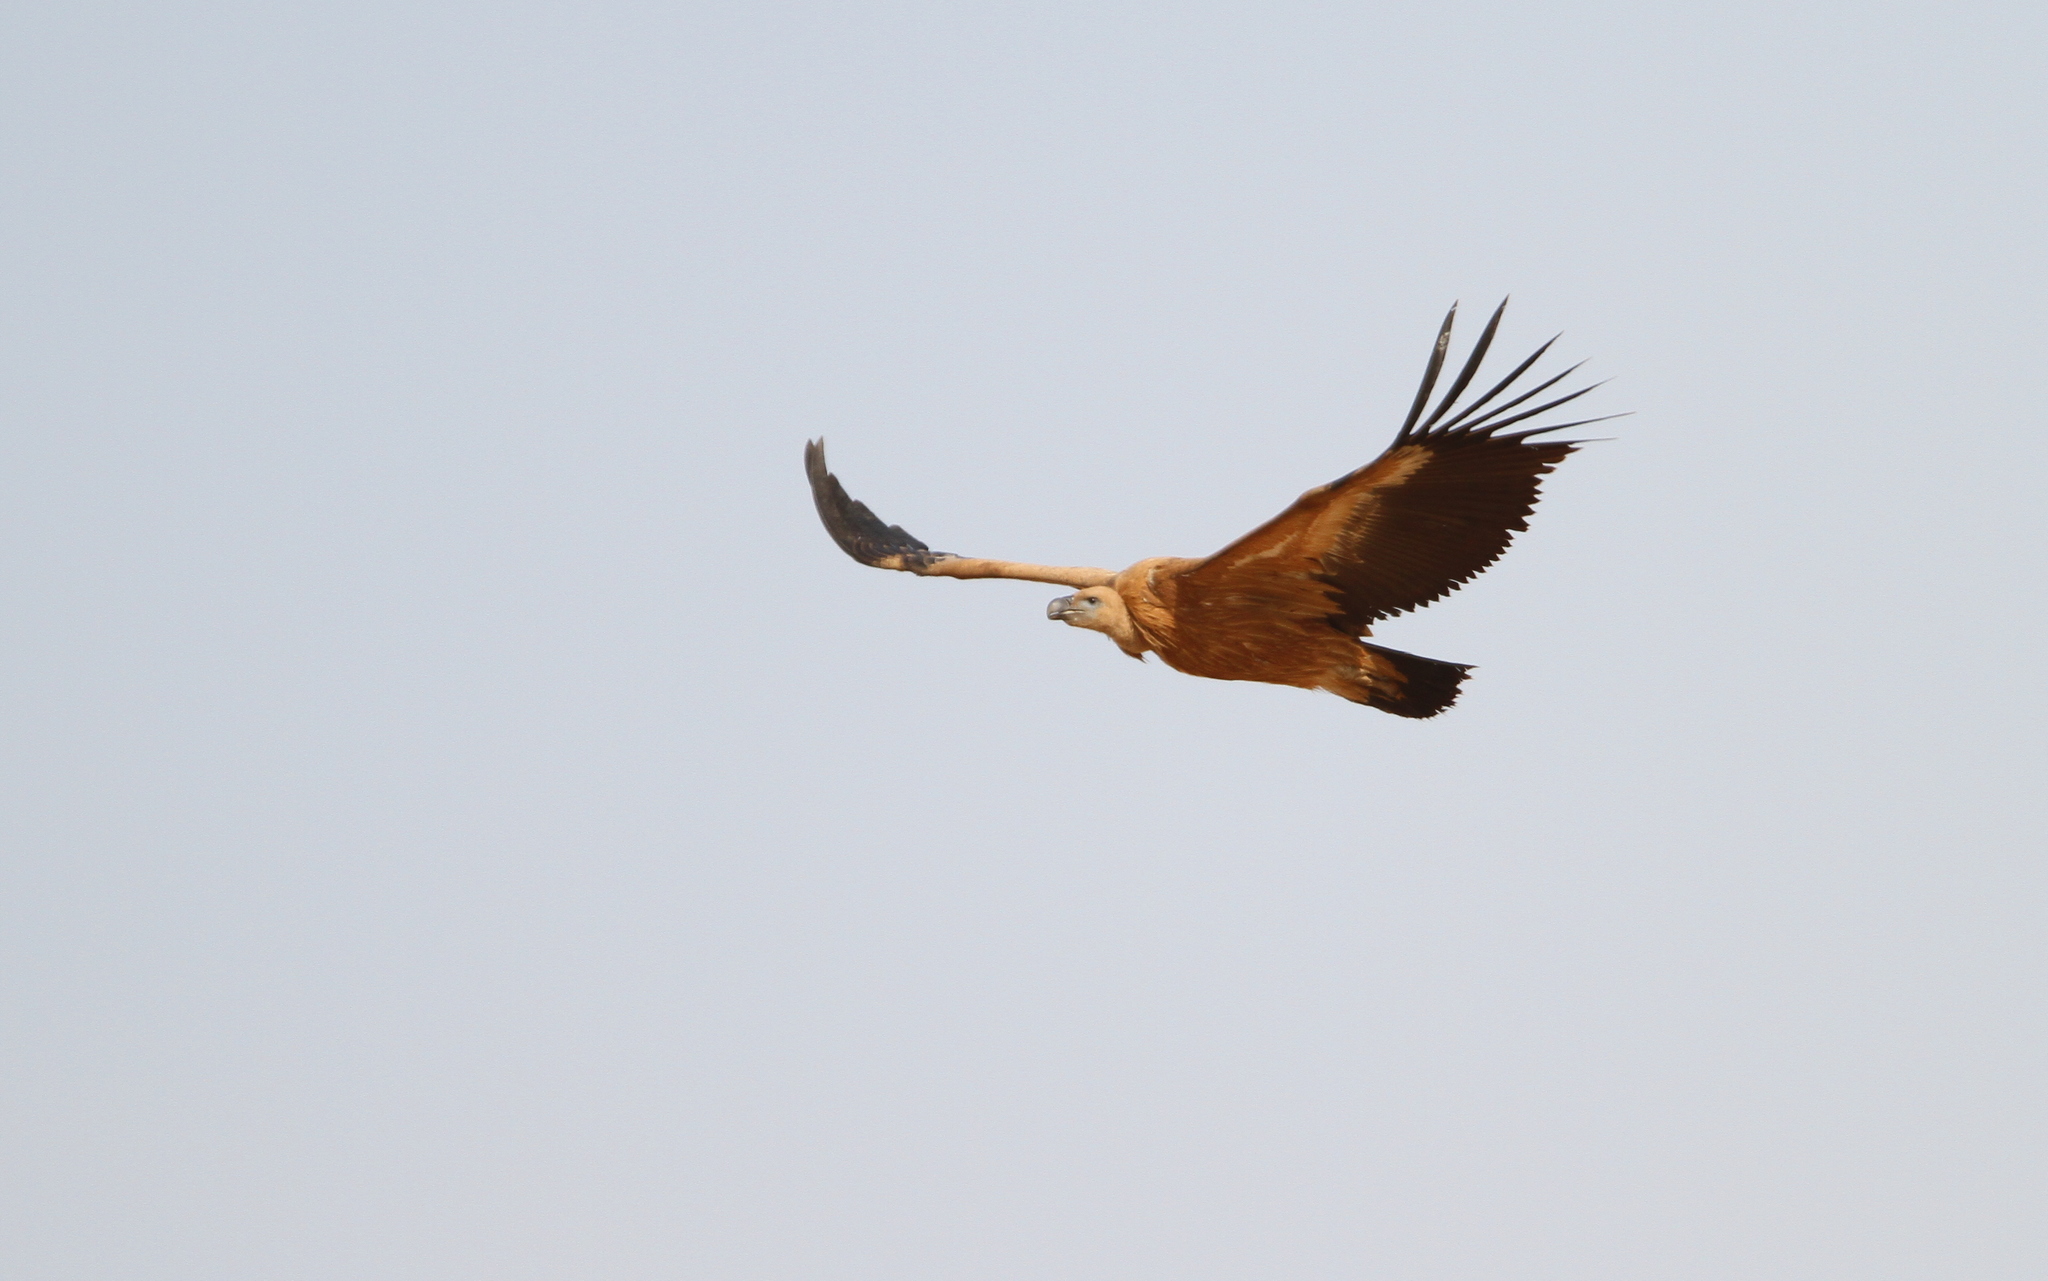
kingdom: Animalia
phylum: Chordata
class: Aves
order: Accipitriformes
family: Accipitridae
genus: Gyps
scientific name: Gyps fulvus
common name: Griffon vulture
